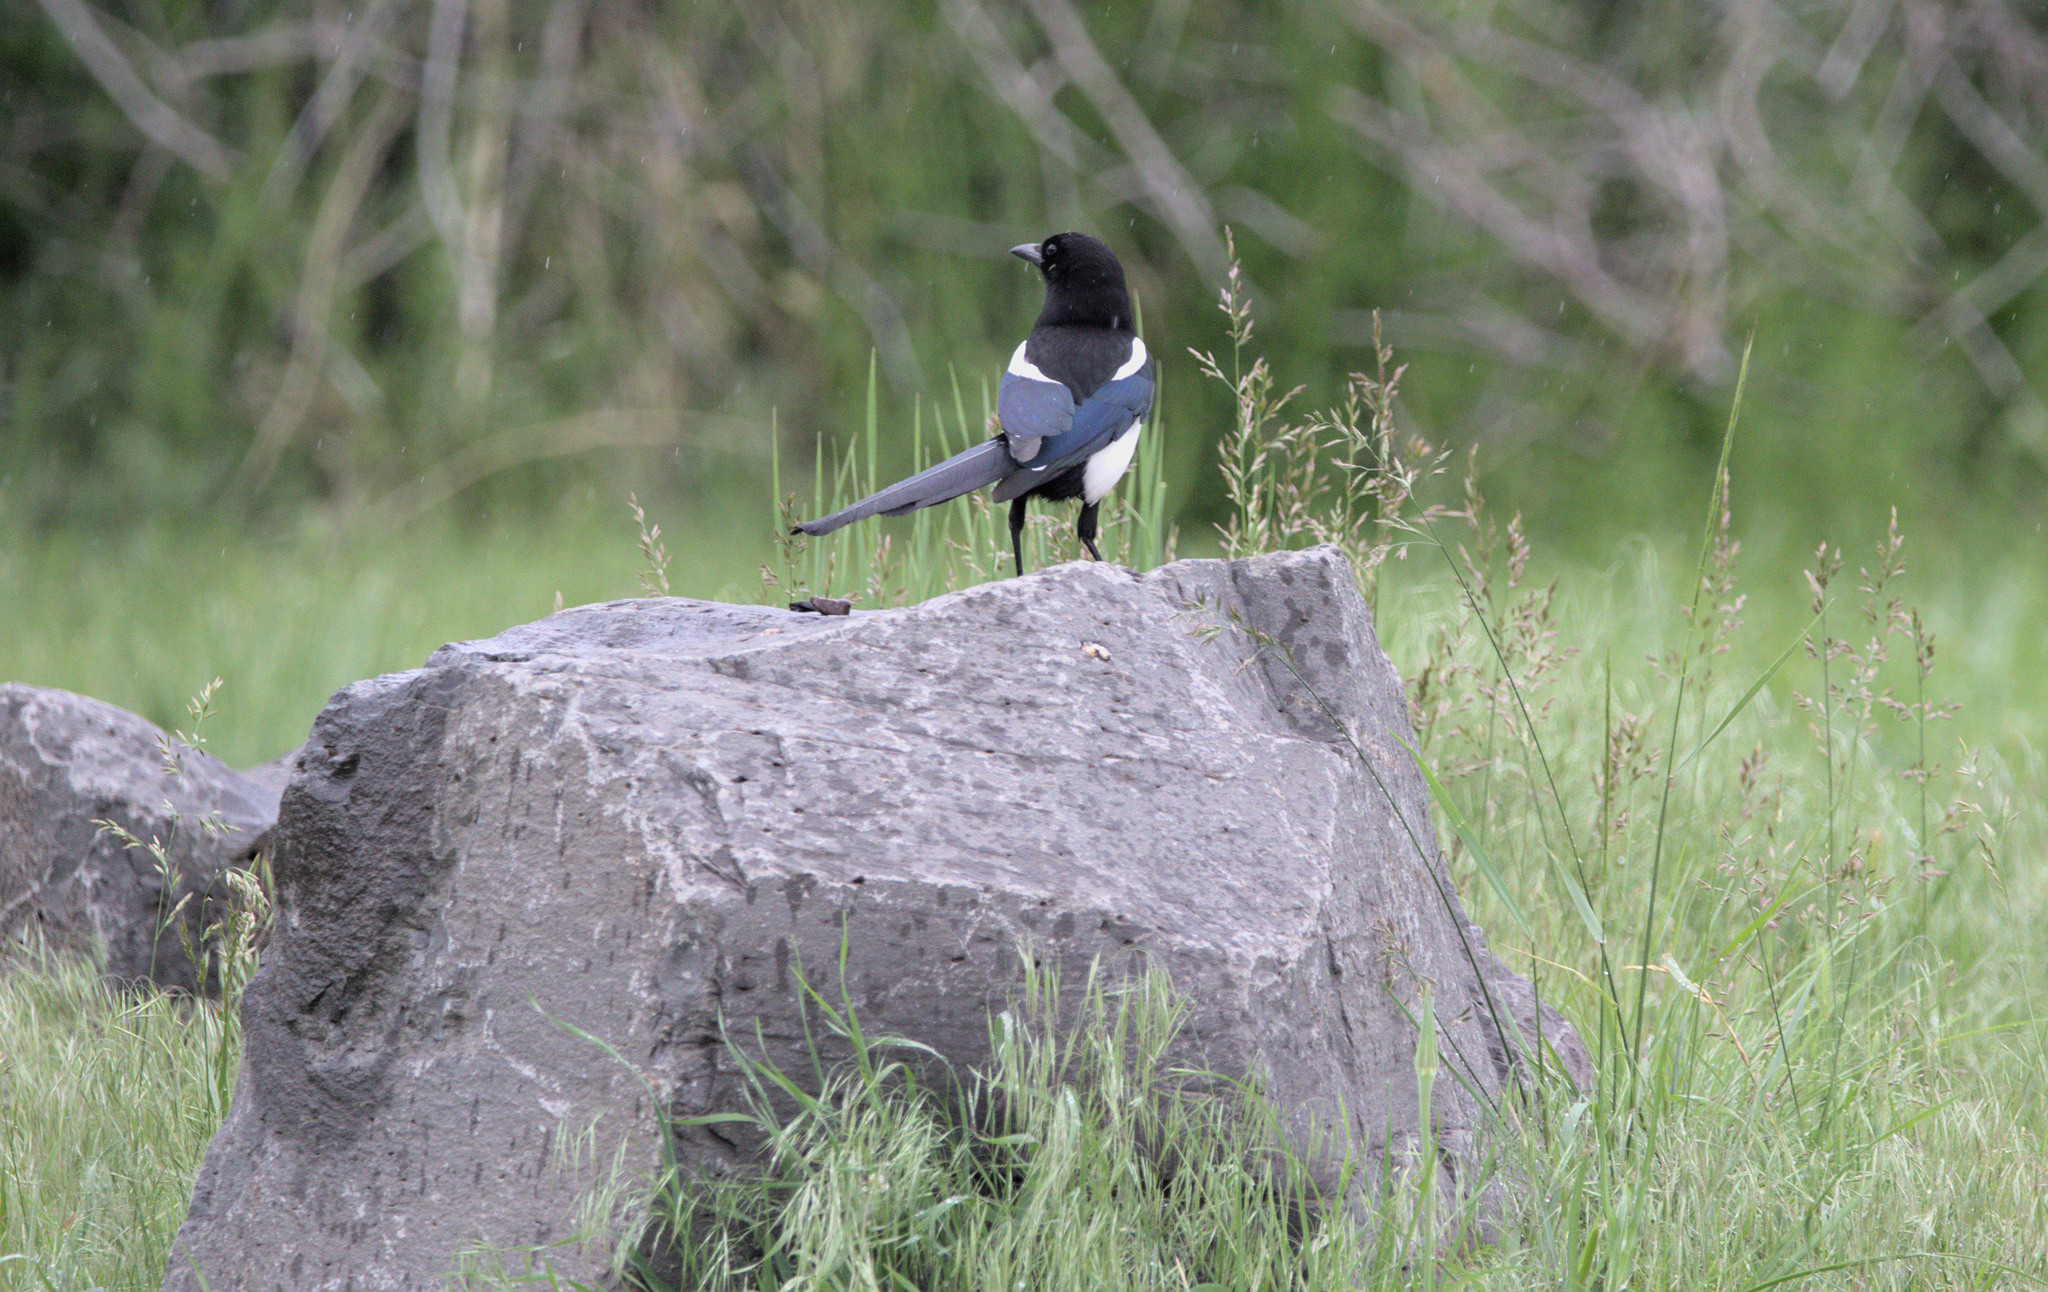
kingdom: Animalia
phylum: Chordata
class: Aves
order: Passeriformes
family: Corvidae
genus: Pica
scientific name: Pica hudsonia
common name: Black-billed magpie
